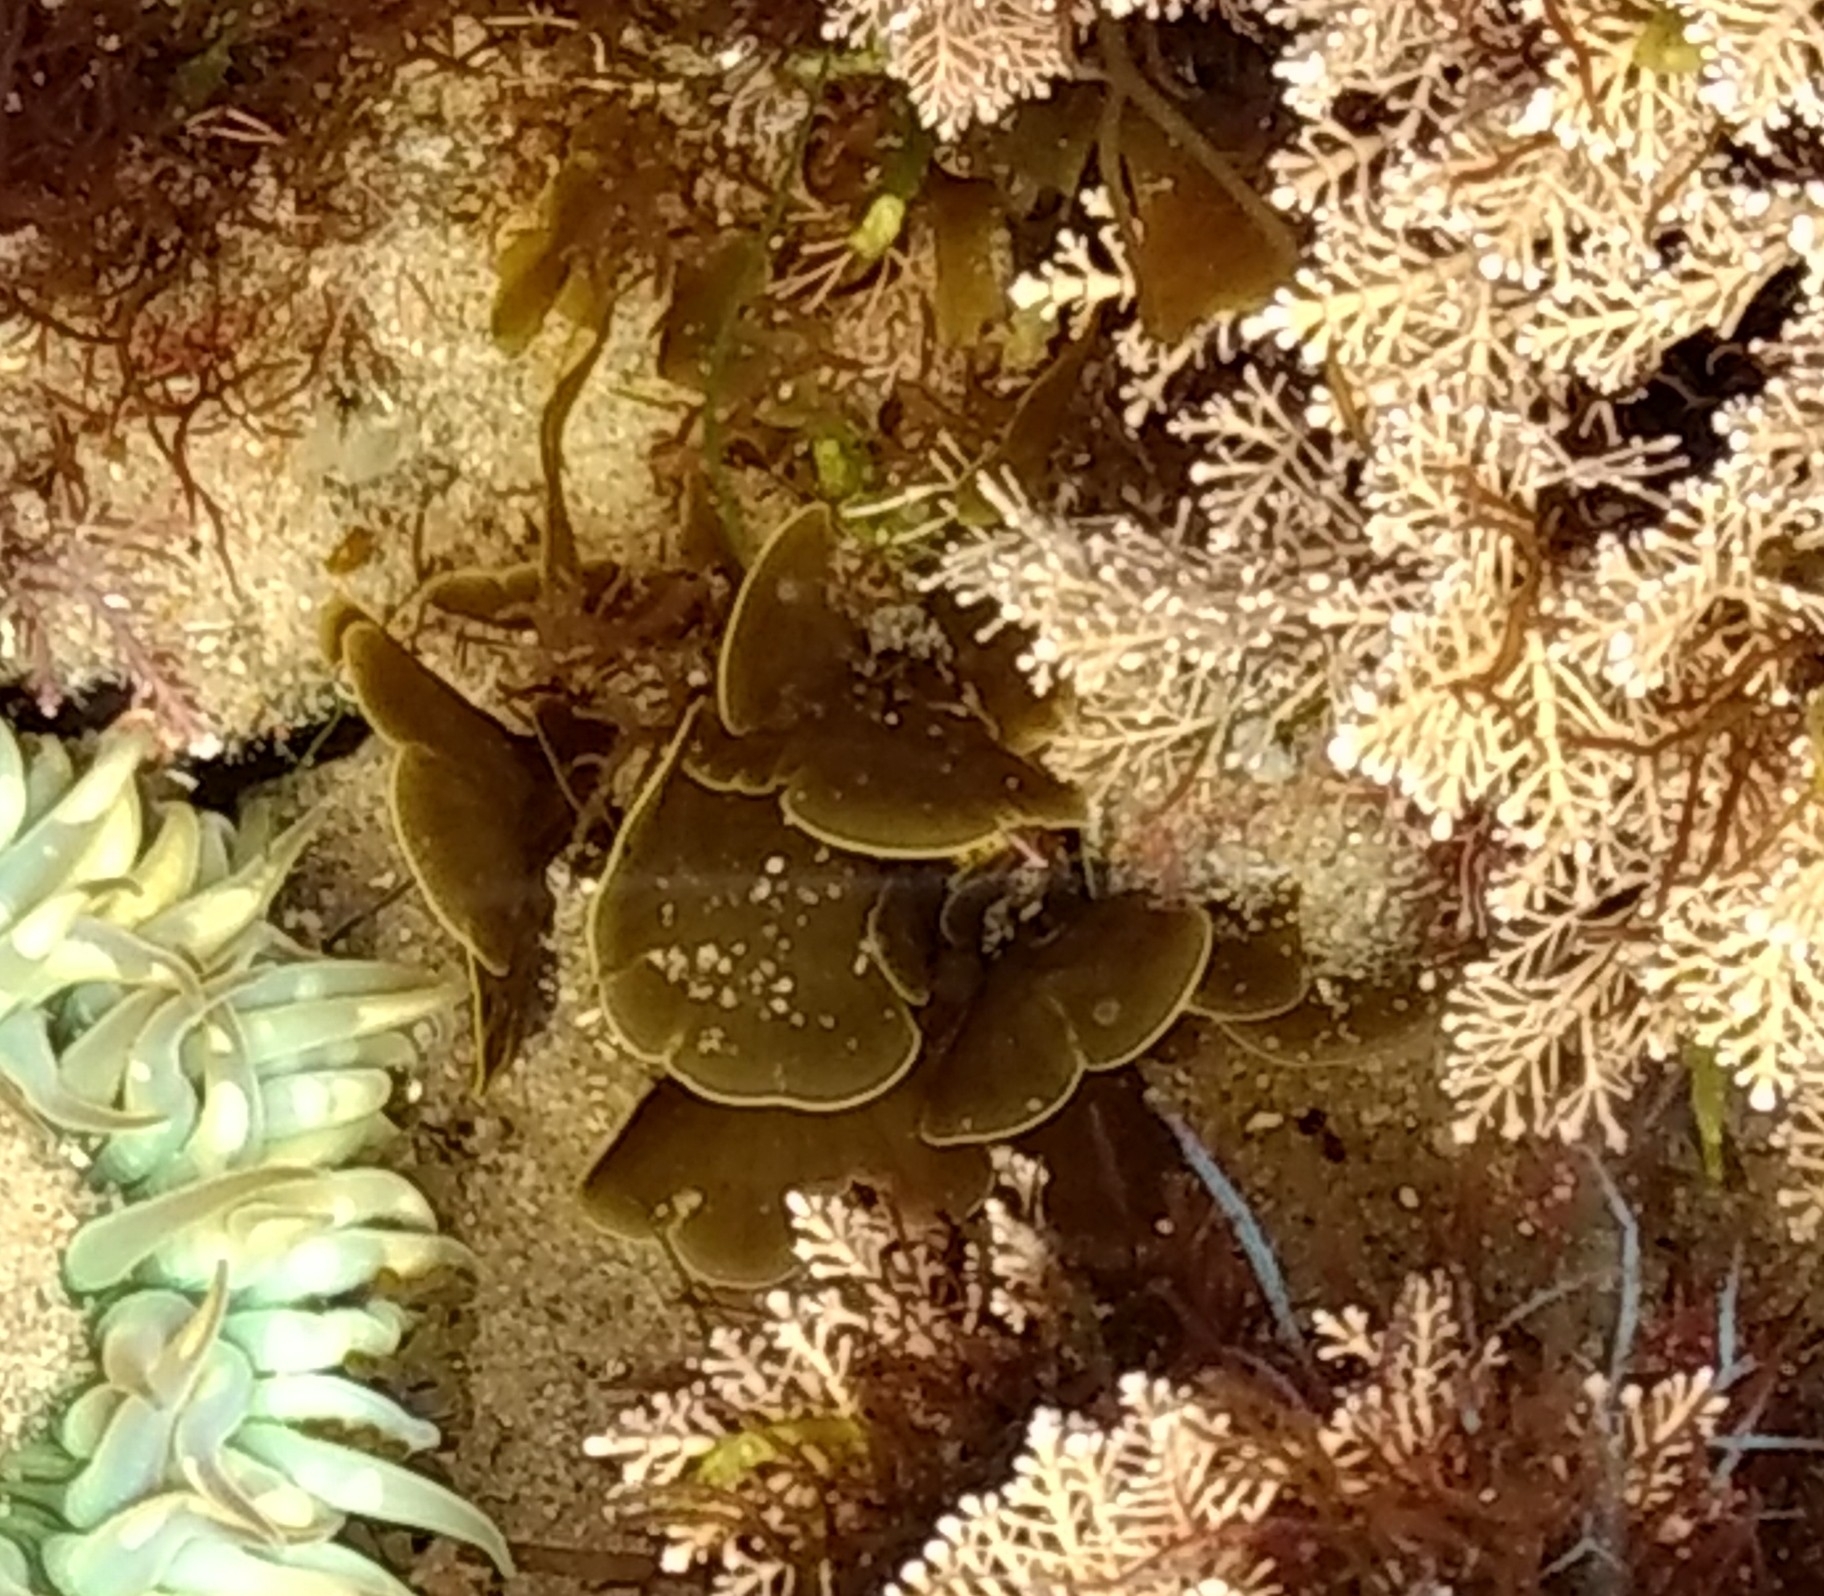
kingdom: Chromista
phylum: Ochrophyta
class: Phaeophyceae
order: Dictyotales
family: Dictyotaceae
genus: Zonaria
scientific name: Zonaria farlowii
